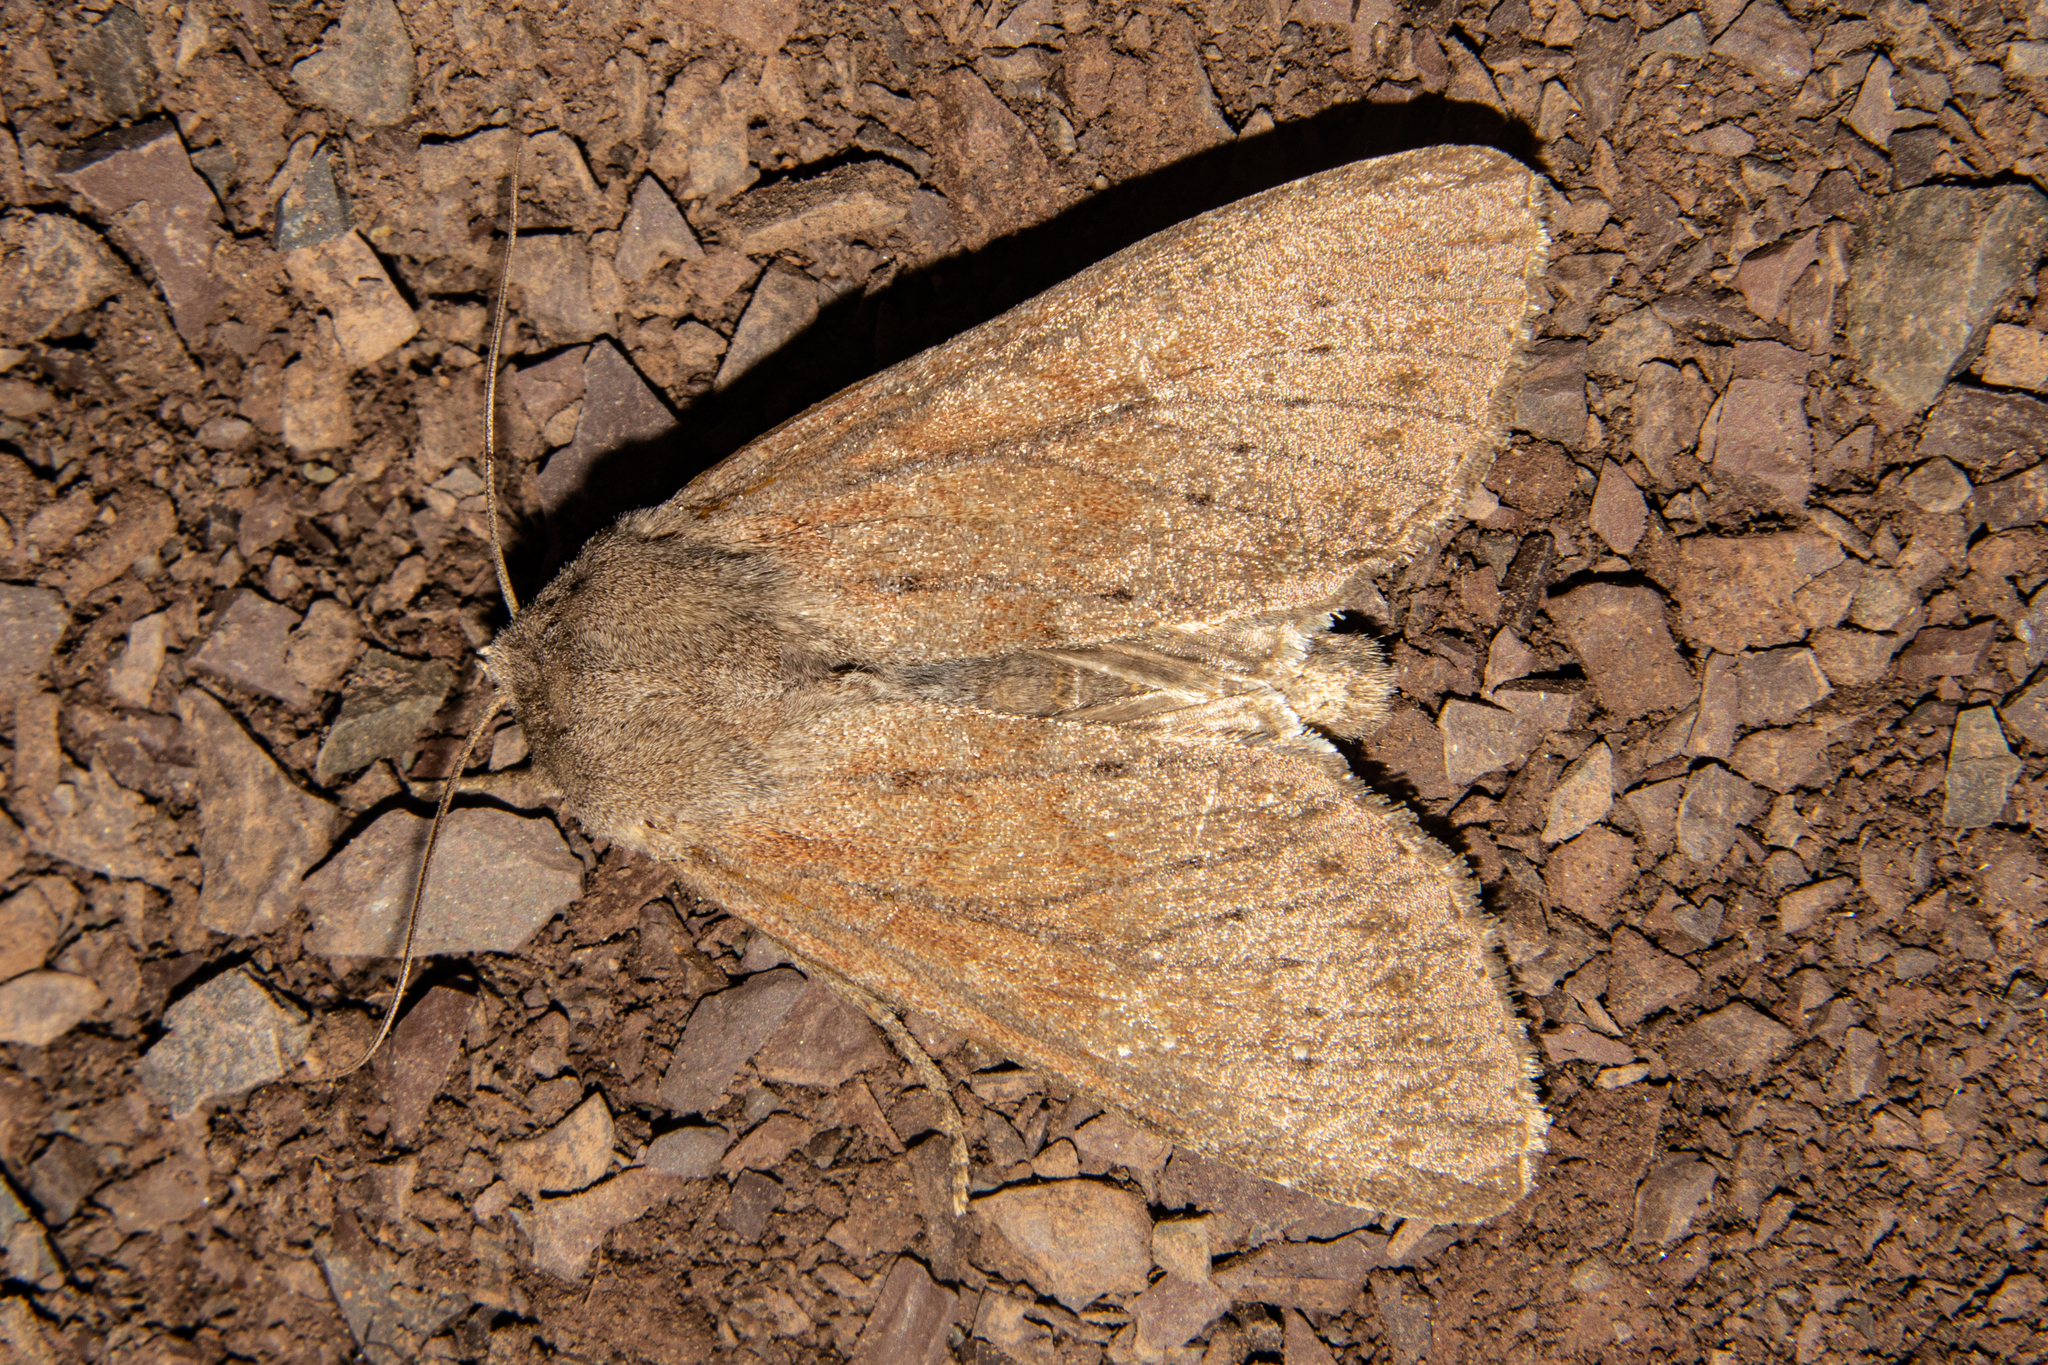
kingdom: Animalia
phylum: Arthropoda
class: Insecta
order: Lepidoptera
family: Noctuidae
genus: Ichneutica
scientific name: Ichneutica nullifera
